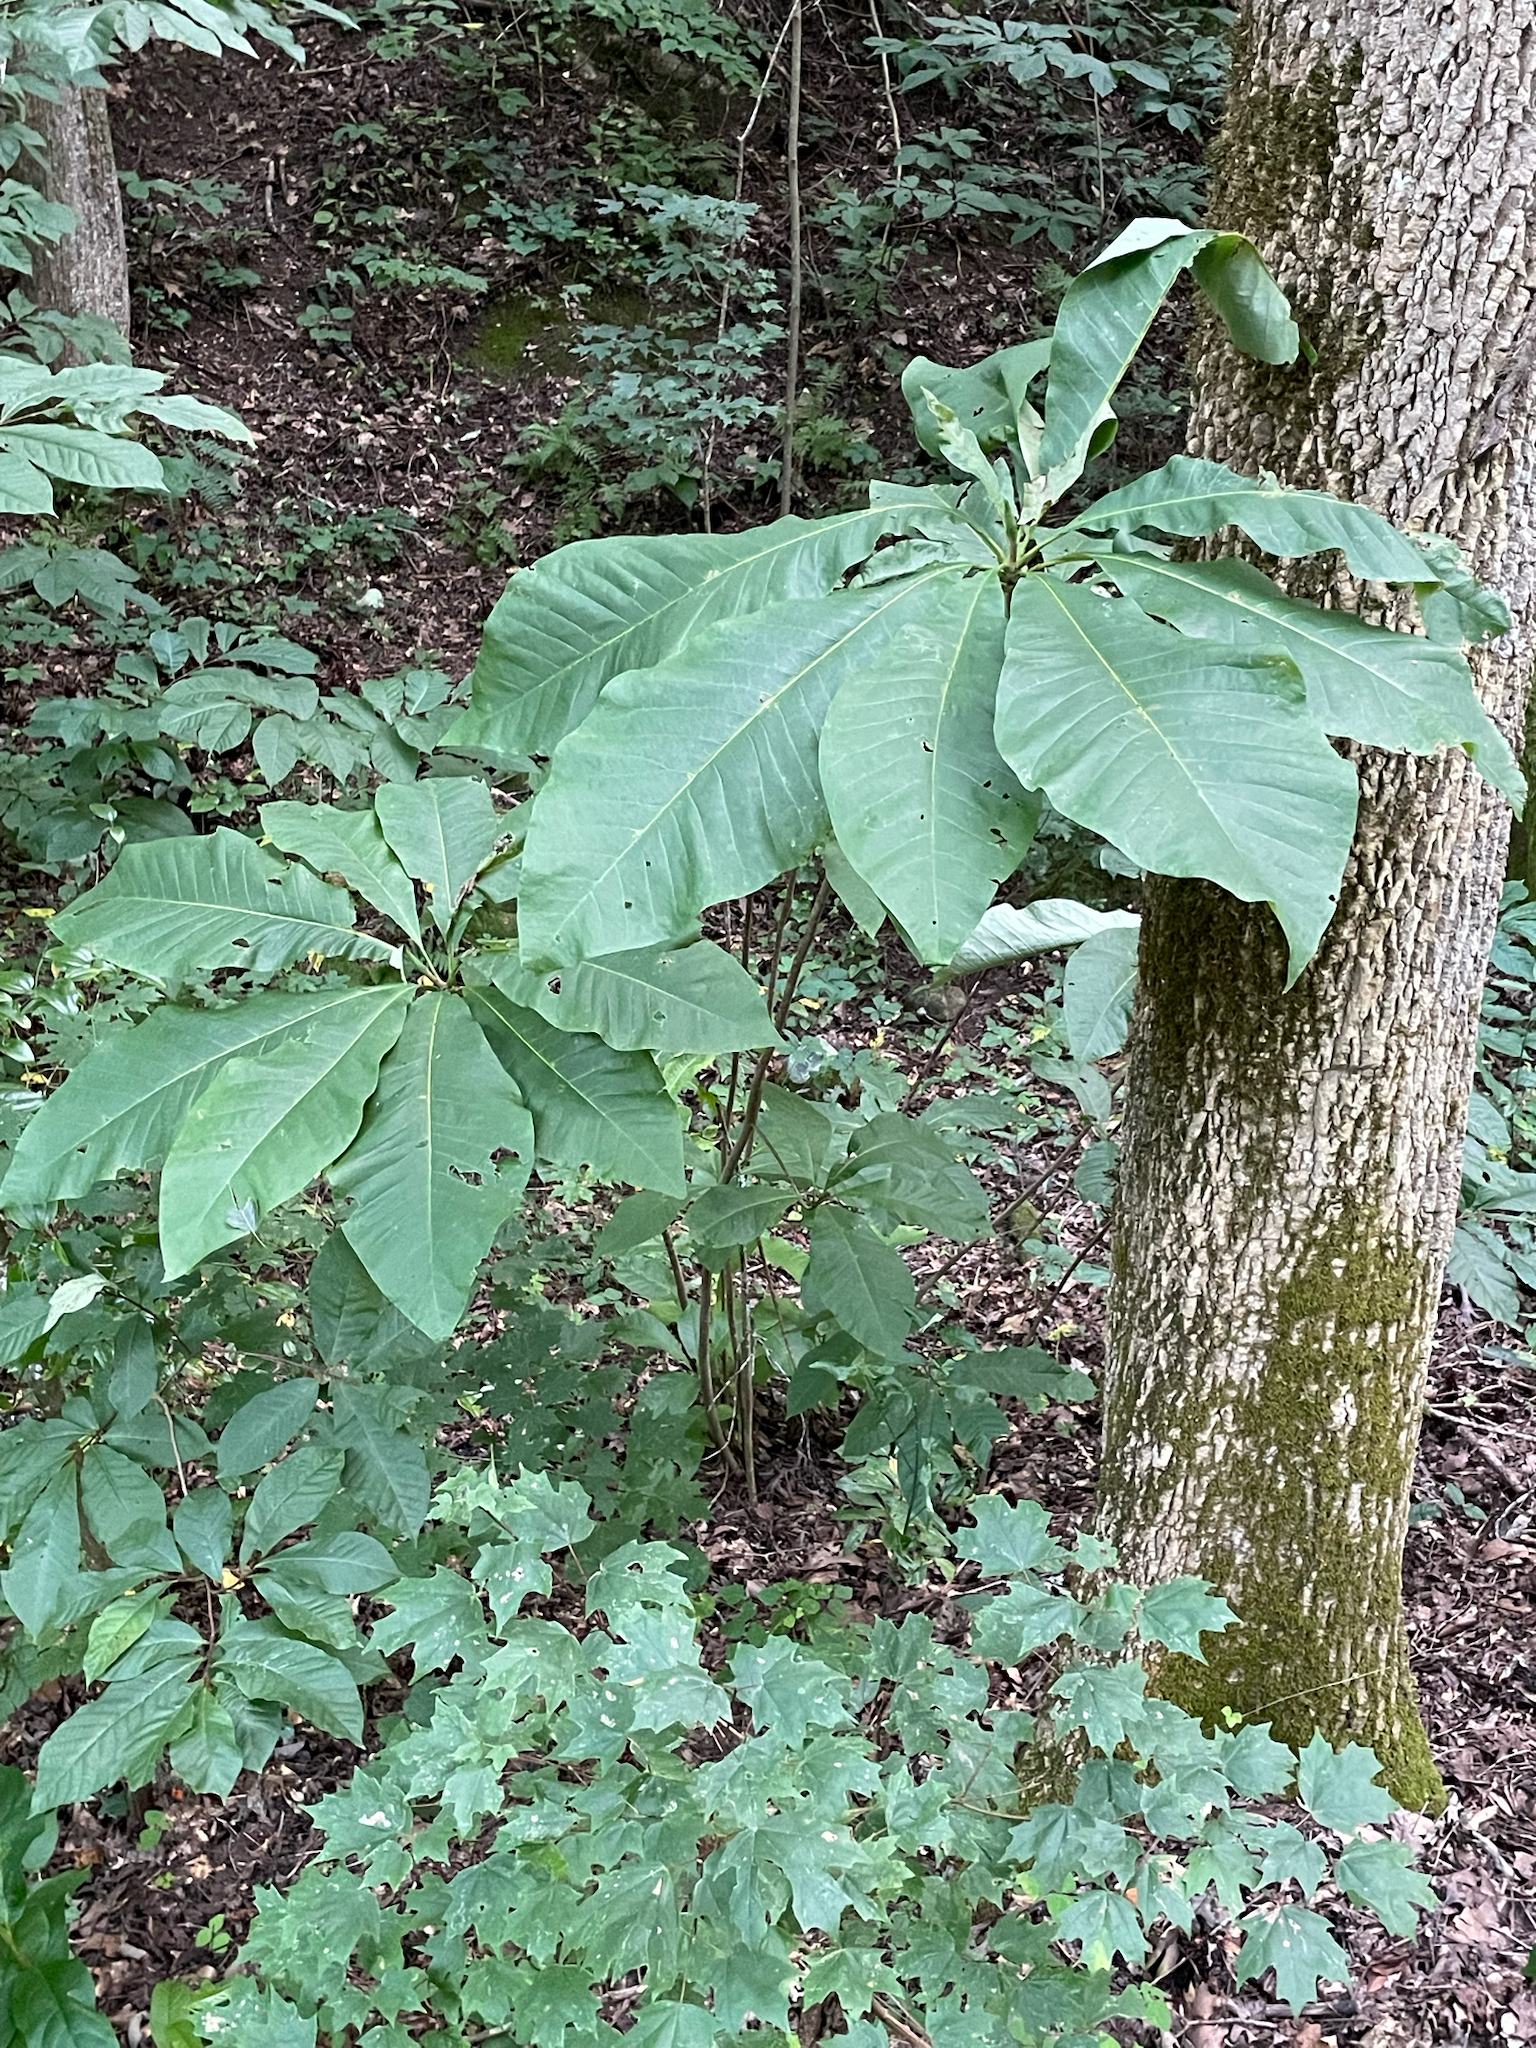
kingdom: Plantae
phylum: Tracheophyta
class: Magnoliopsida
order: Magnoliales
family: Magnoliaceae
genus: Magnolia
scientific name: Magnolia tripetala
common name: Umbrella magnolia
